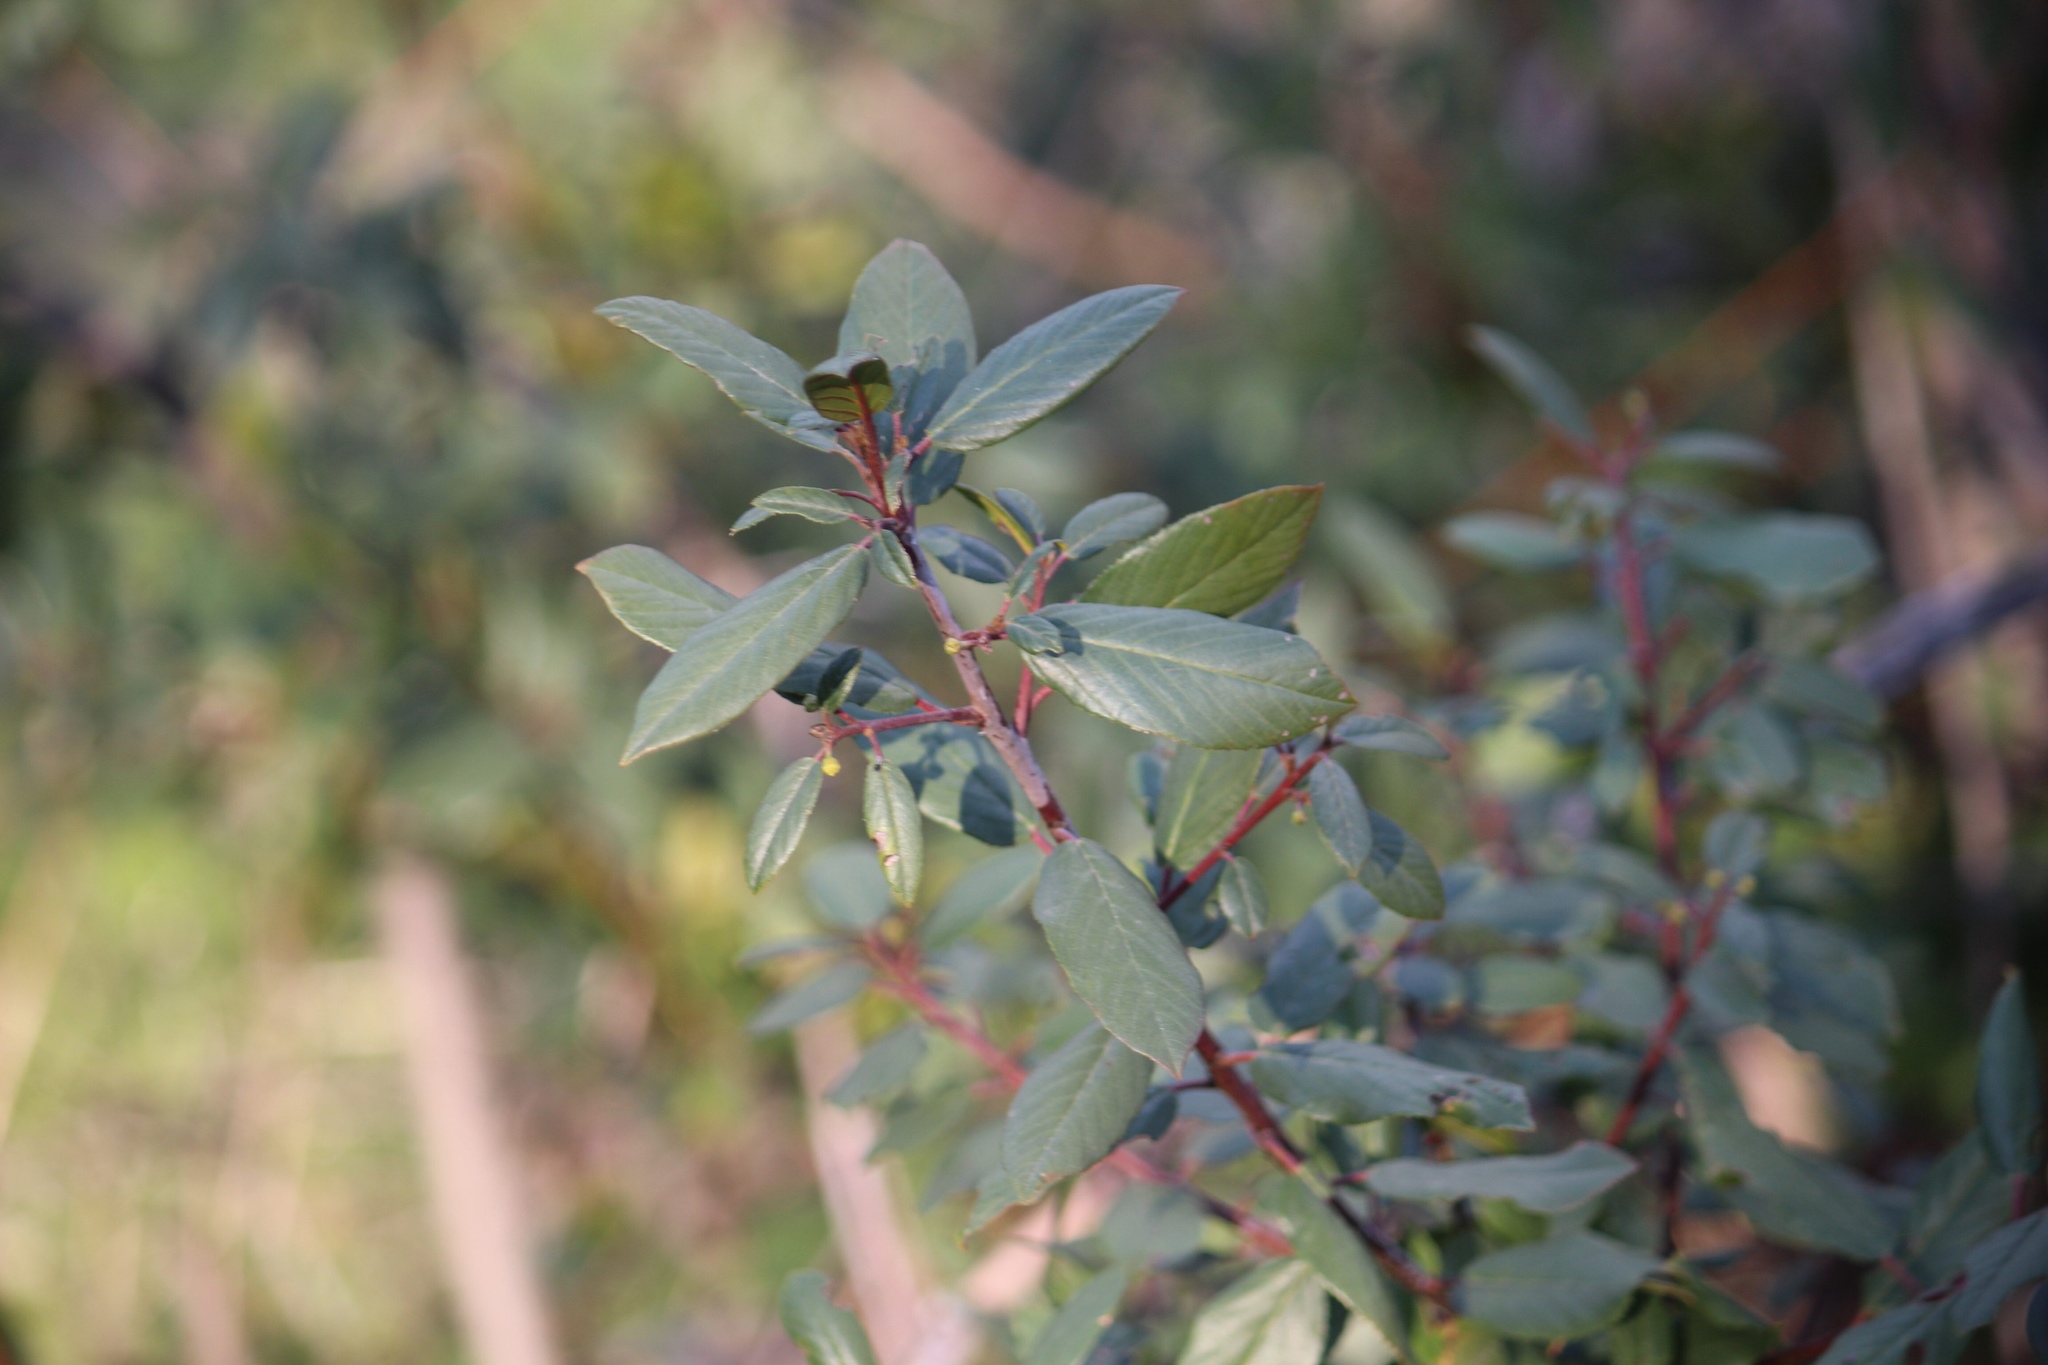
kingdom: Plantae
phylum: Tracheophyta
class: Magnoliopsida
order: Rosales
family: Rhamnaceae
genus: Frangula
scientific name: Frangula californica
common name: California buckthorn
